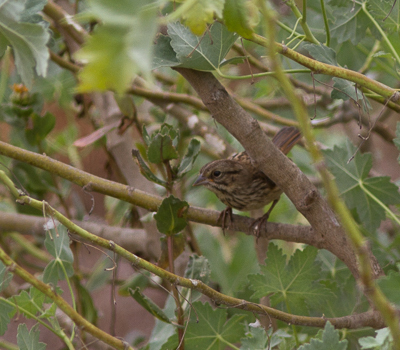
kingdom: Animalia
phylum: Chordata
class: Aves
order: Passeriformes
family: Passerellidae
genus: Melospiza
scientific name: Melospiza melodia
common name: Song sparrow
